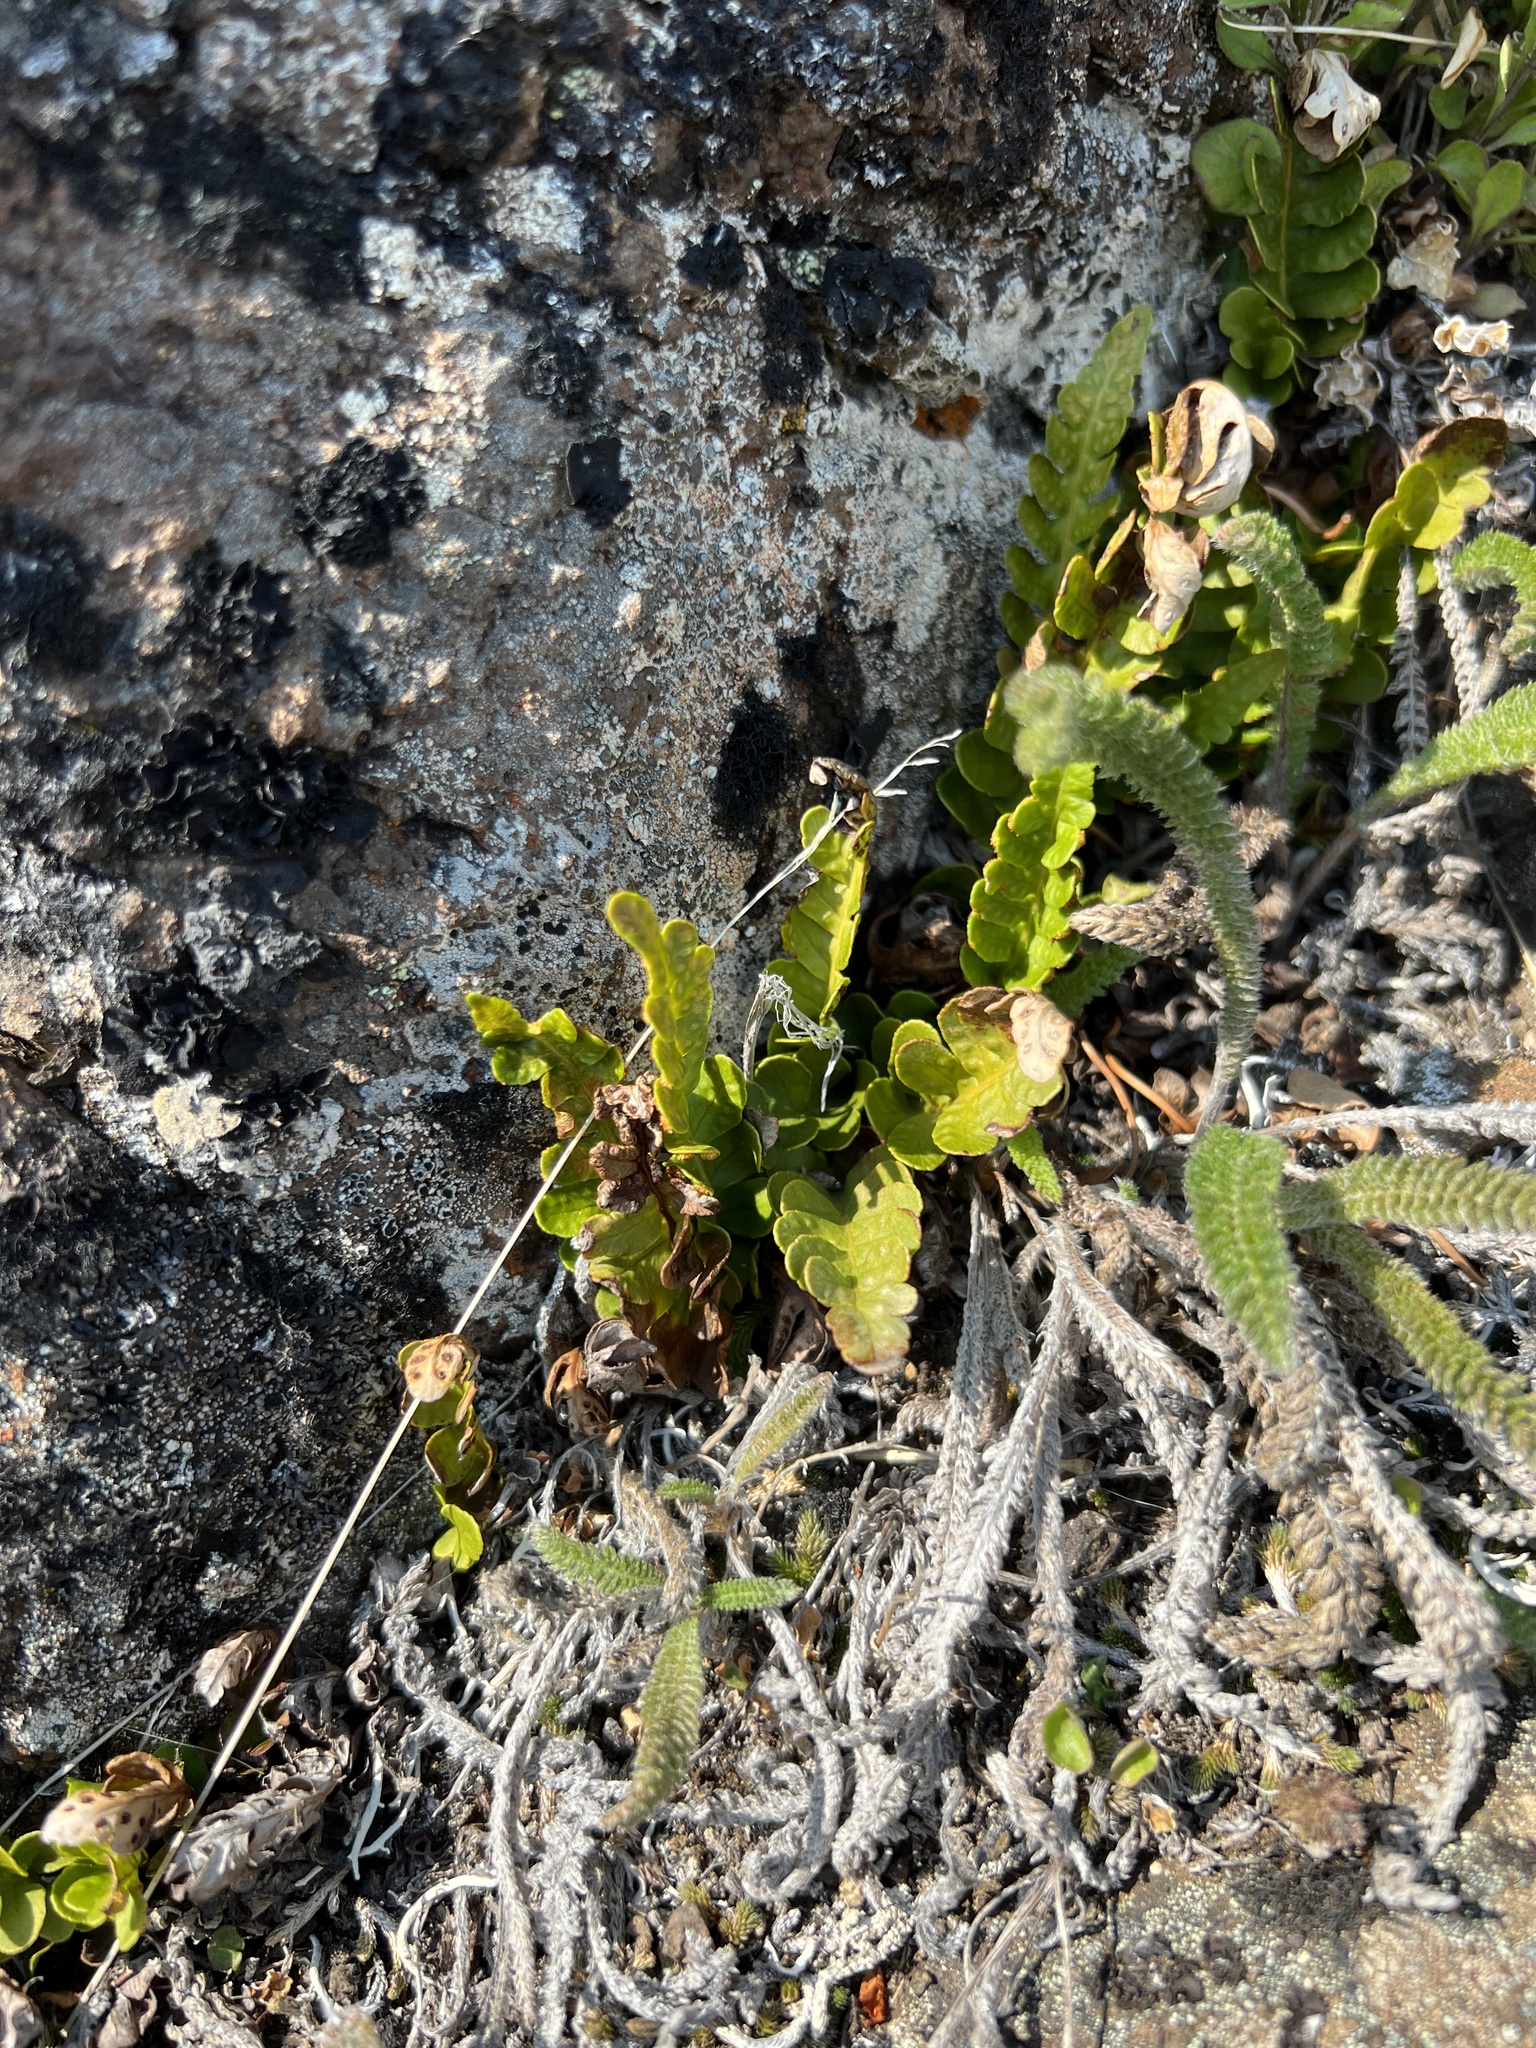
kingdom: Plantae
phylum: Tracheophyta
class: Polypodiopsida
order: Polypodiales
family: Polypodiaceae
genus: Polypodium
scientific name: Polypodium amorphum
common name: Pacific polypody
